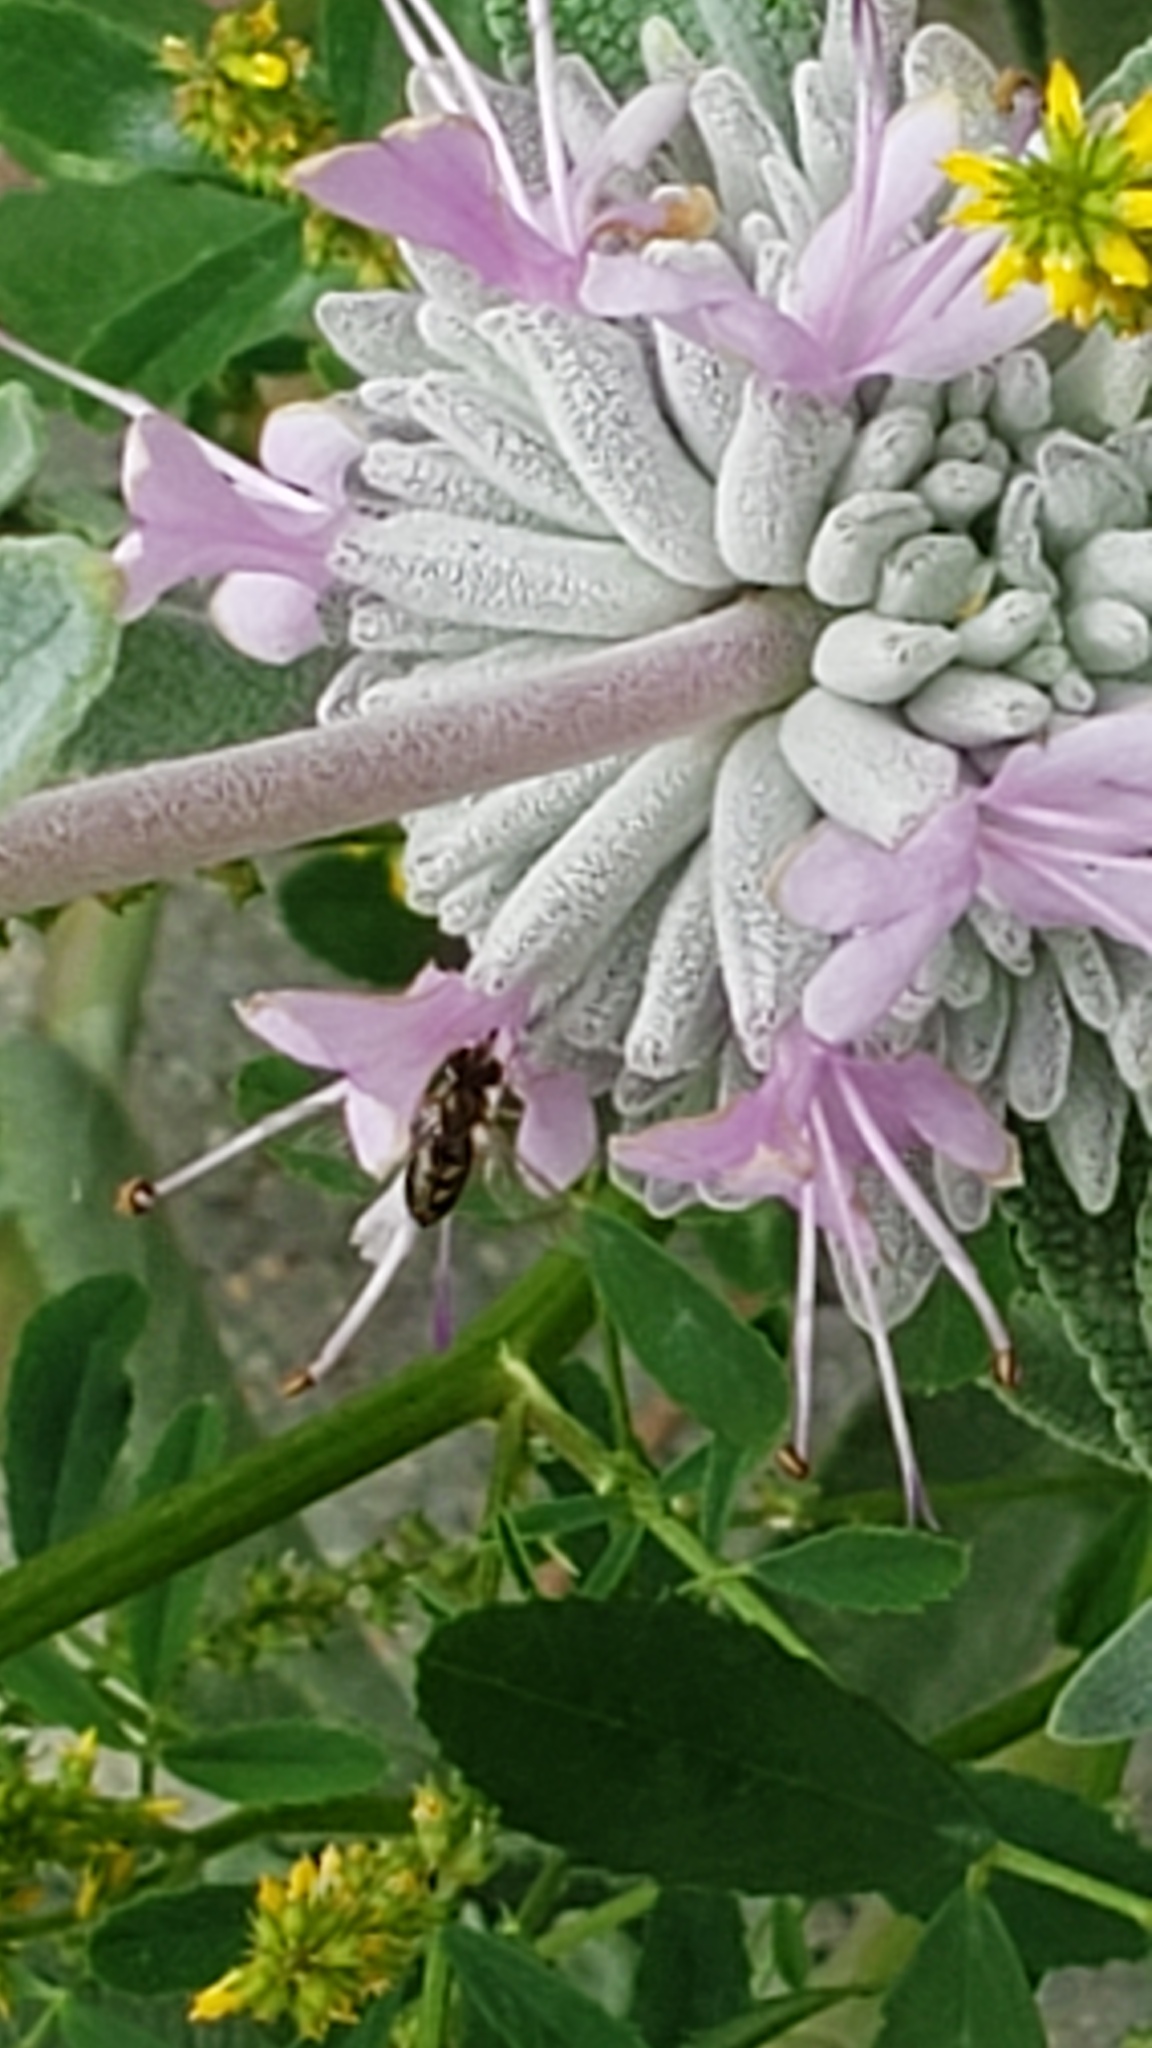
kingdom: Animalia
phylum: Arthropoda
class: Insecta
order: Diptera
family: Syrphidae
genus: Toxomerus
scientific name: Toxomerus marginatus
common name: Syrphid fly
